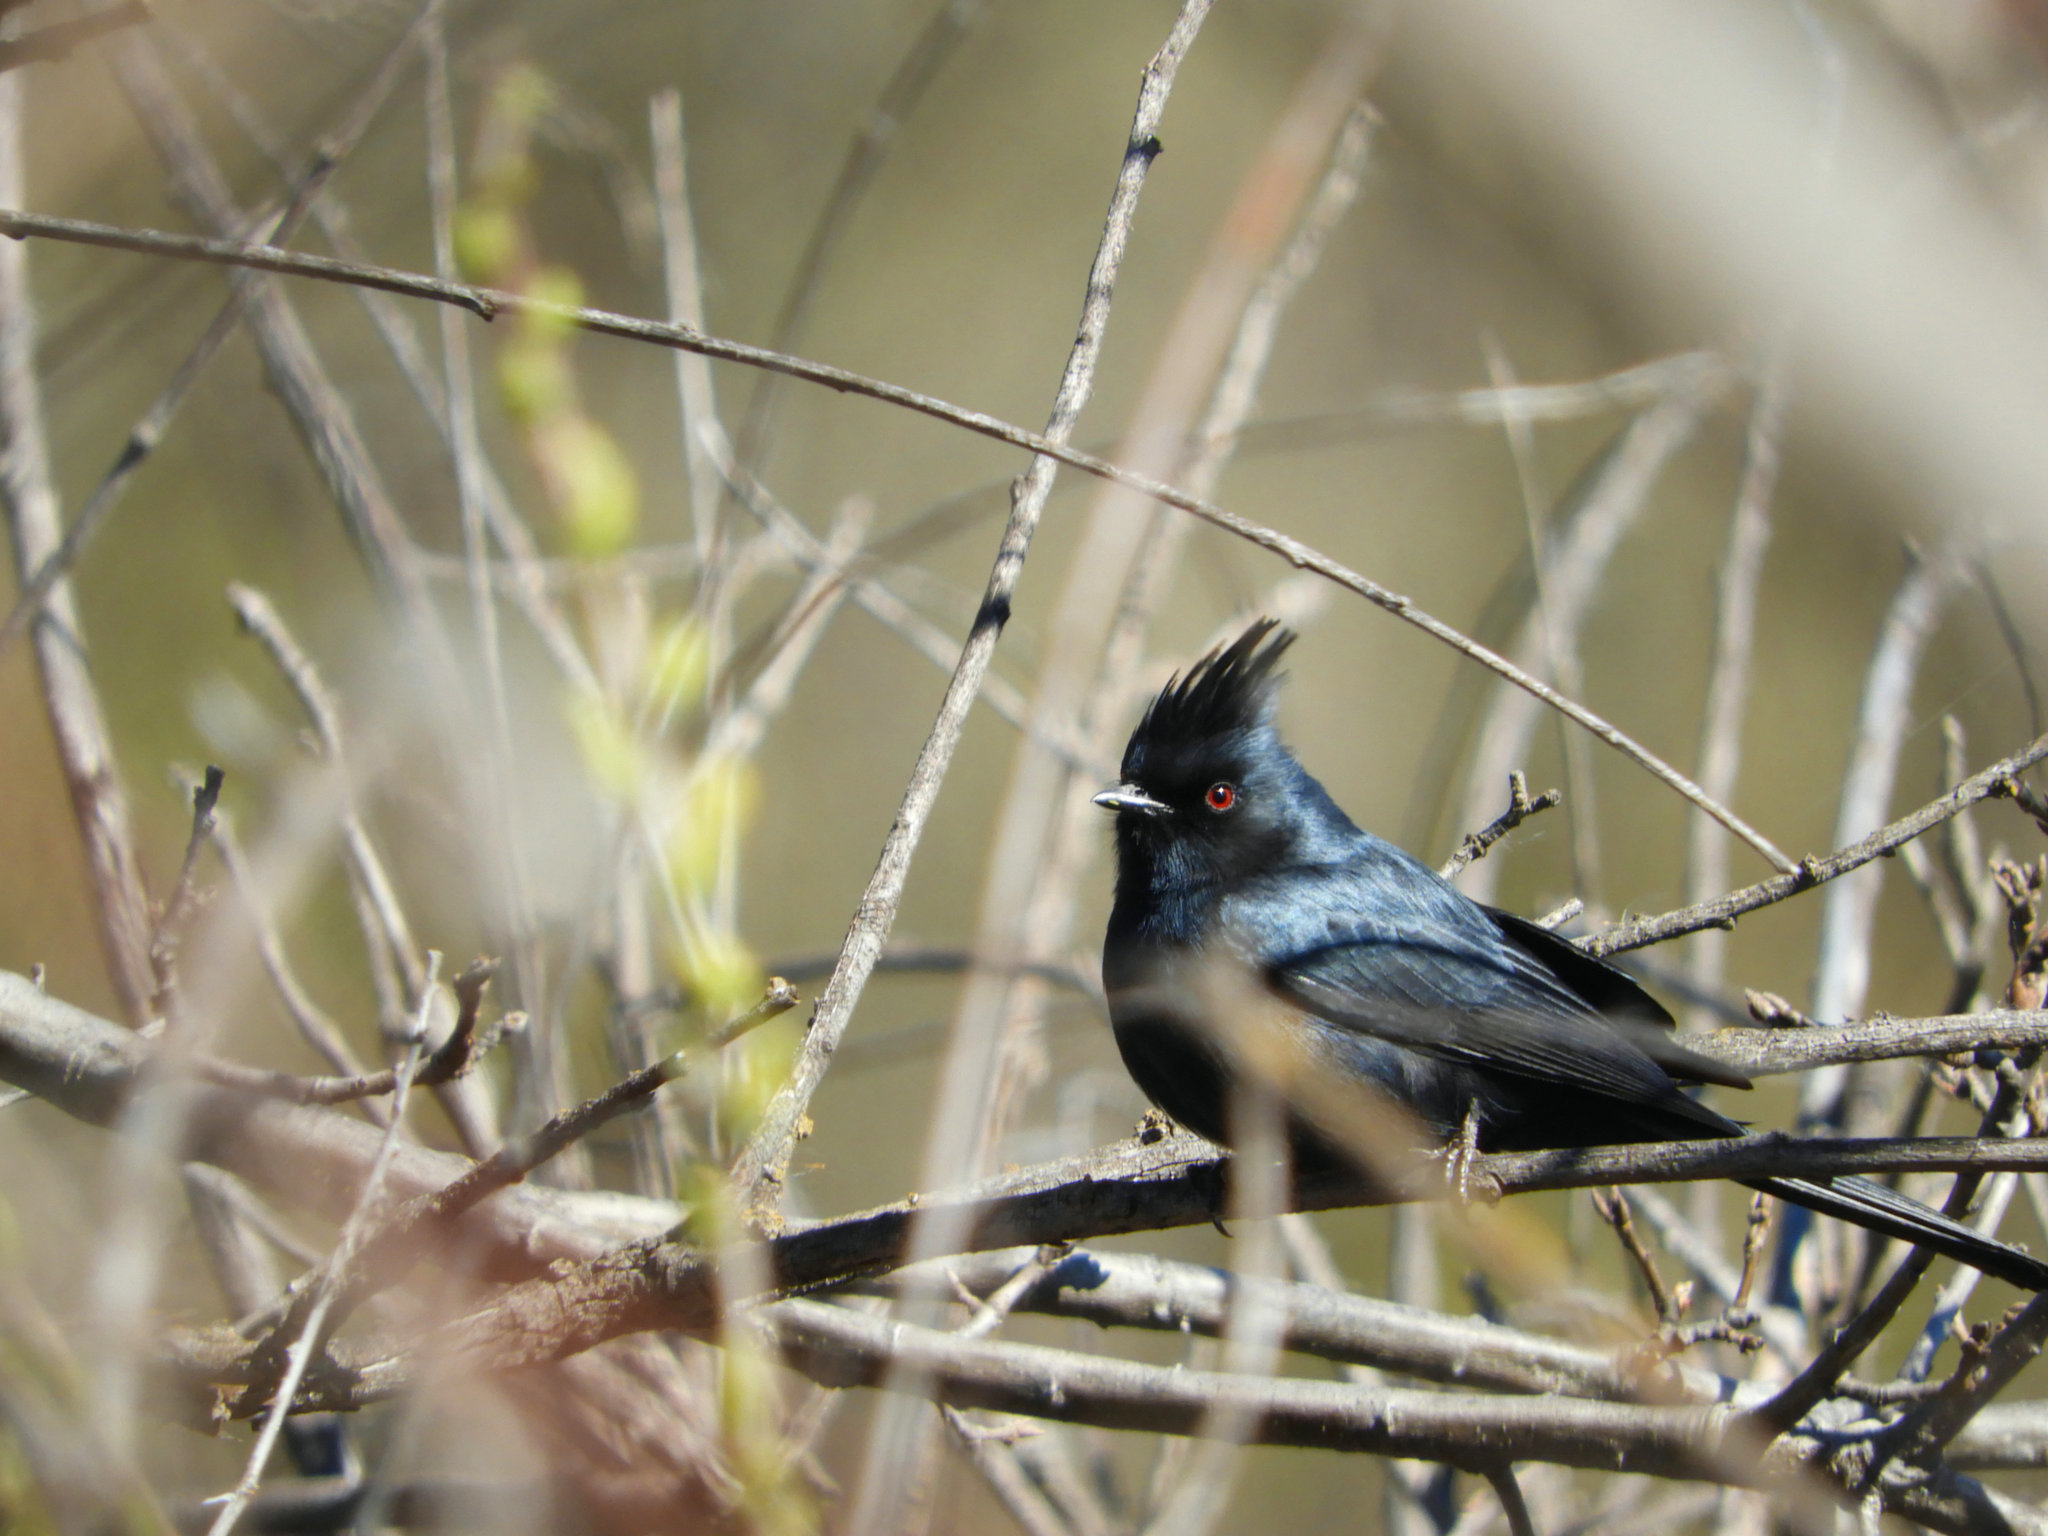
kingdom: Animalia
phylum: Chordata
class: Aves
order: Passeriformes
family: Ptilogonatidae
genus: Phainopepla
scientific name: Phainopepla nitens
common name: Phainopepla
